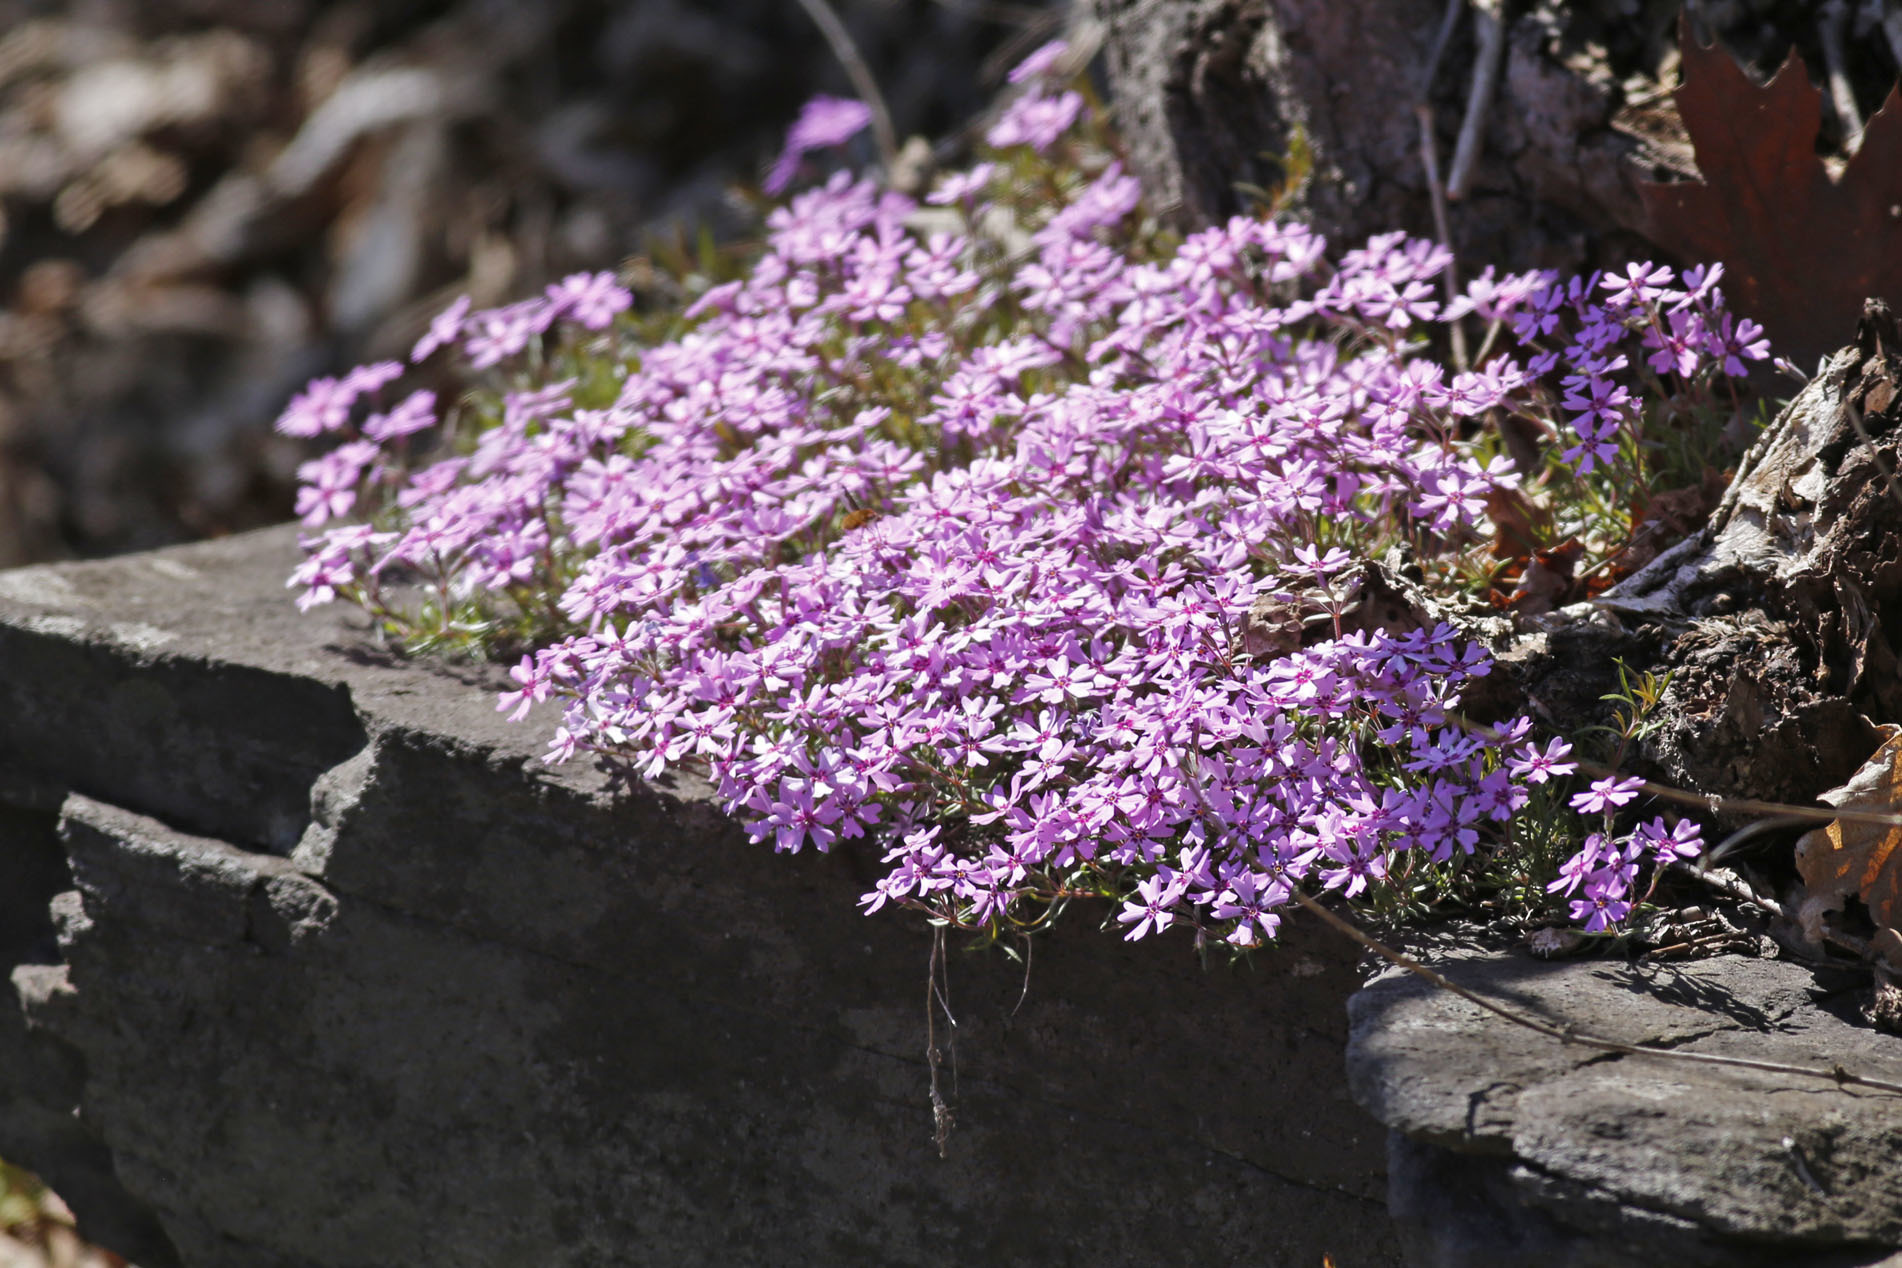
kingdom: Plantae
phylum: Tracheophyta
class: Magnoliopsida
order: Ericales
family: Polemoniaceae
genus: Phlox
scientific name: Phlox subulata
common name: Moss phlox
